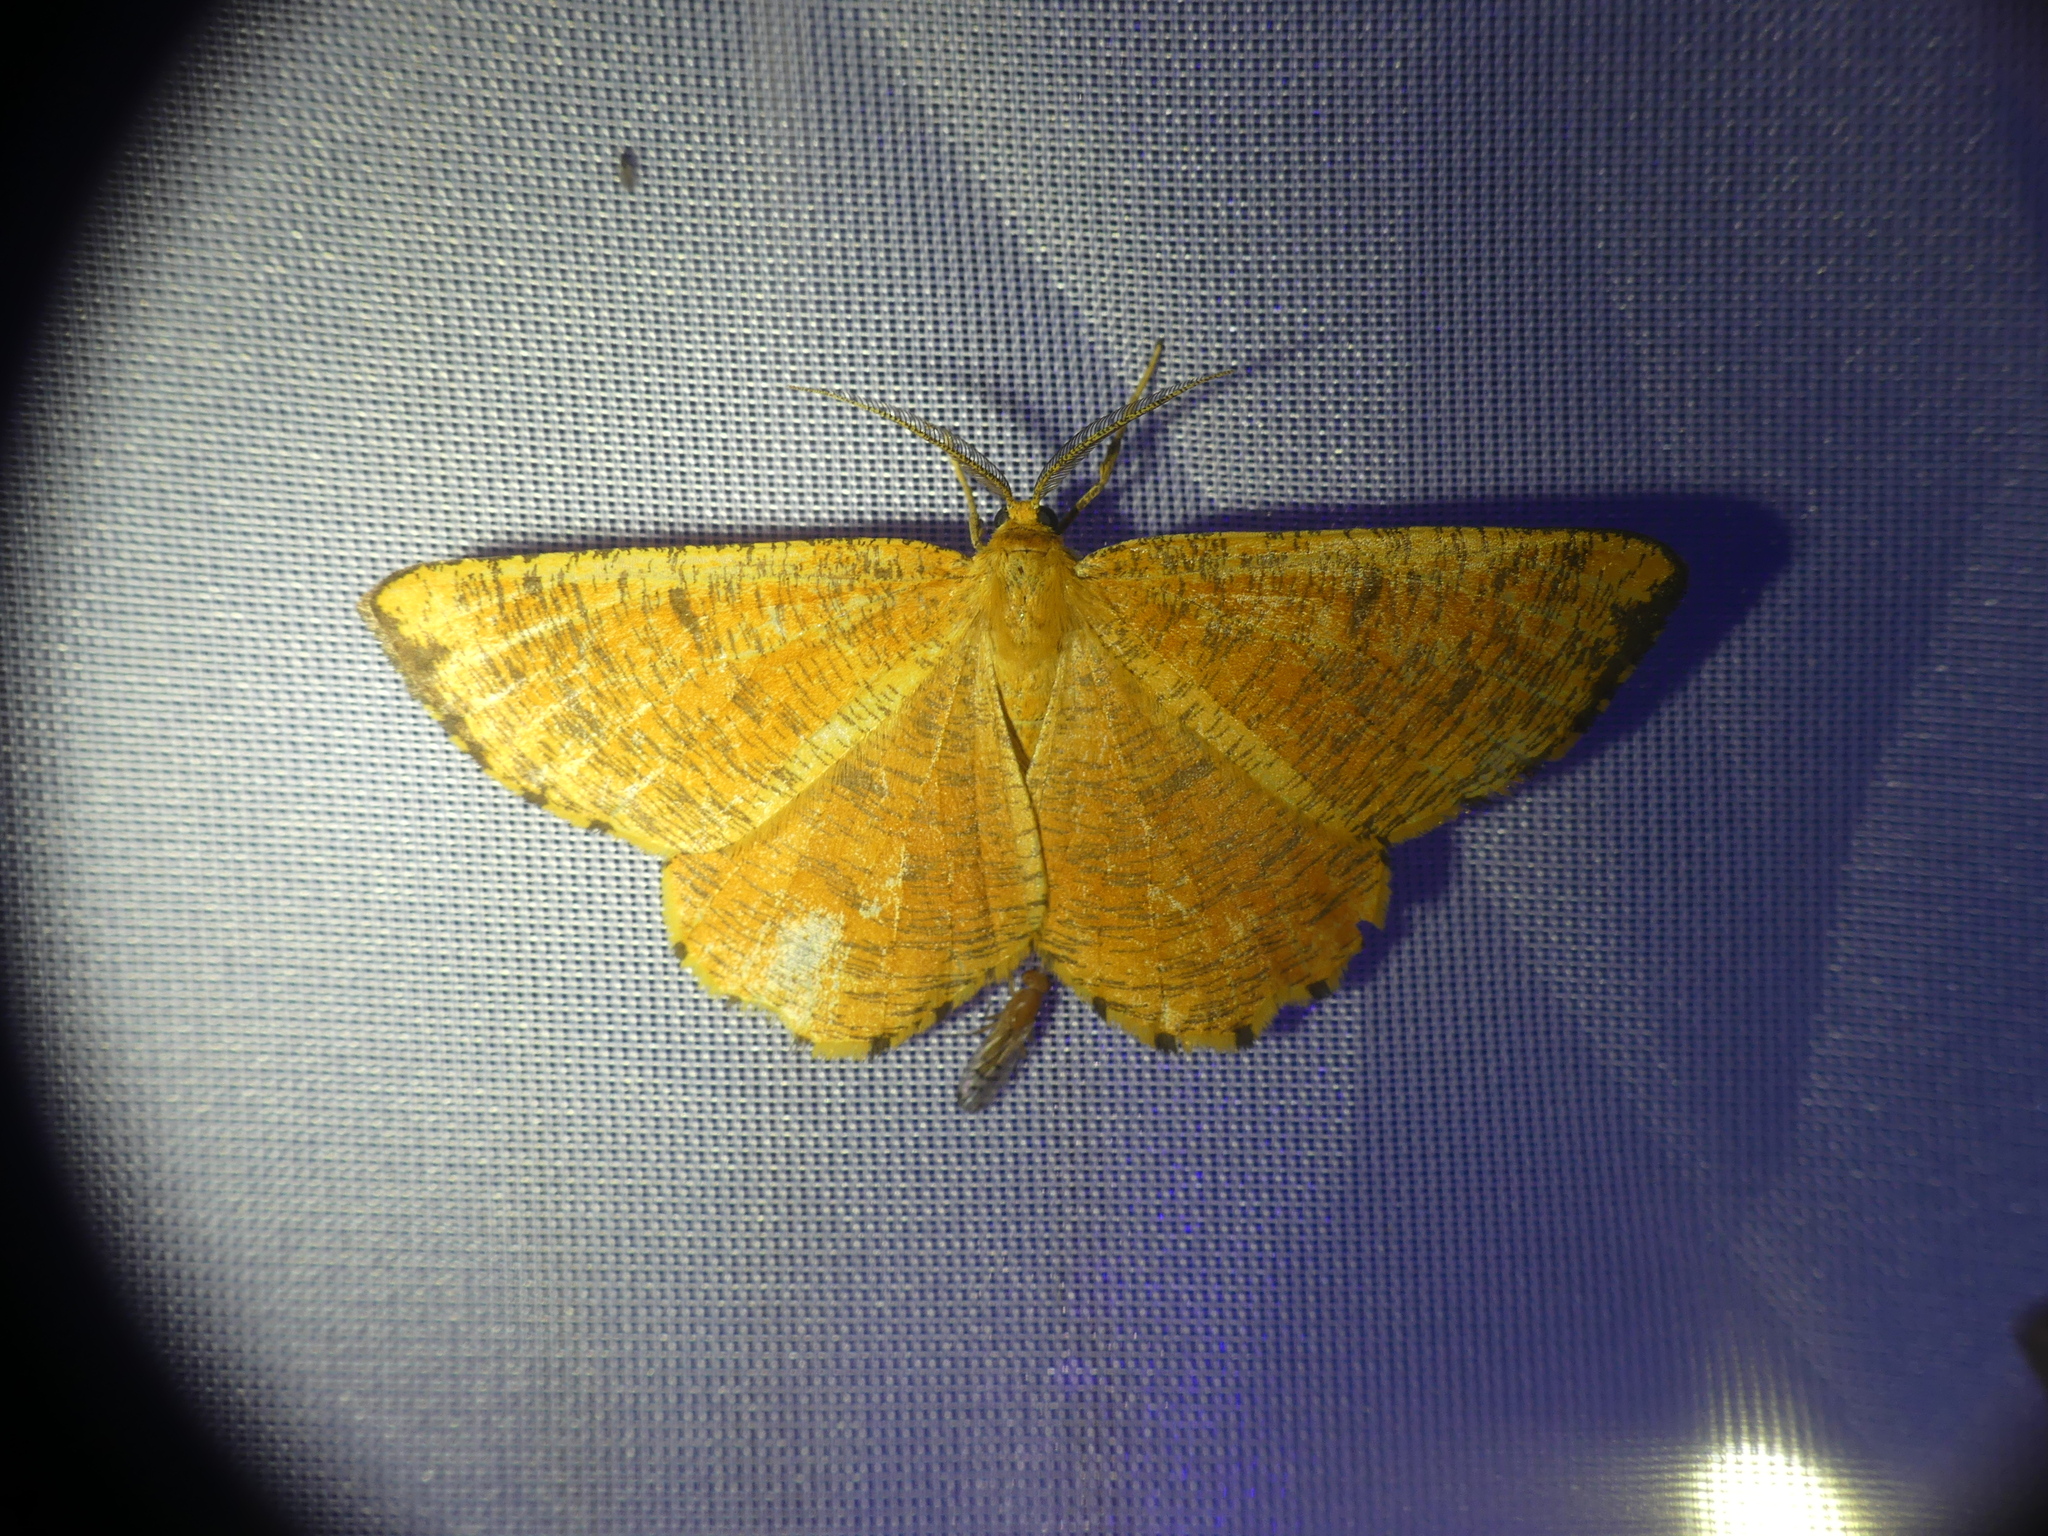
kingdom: Animalia
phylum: Arthropoda
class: Insecta
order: Lepidoptera
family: Geometridae
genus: Angerona
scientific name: Angerona prunaria
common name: Orange moth
